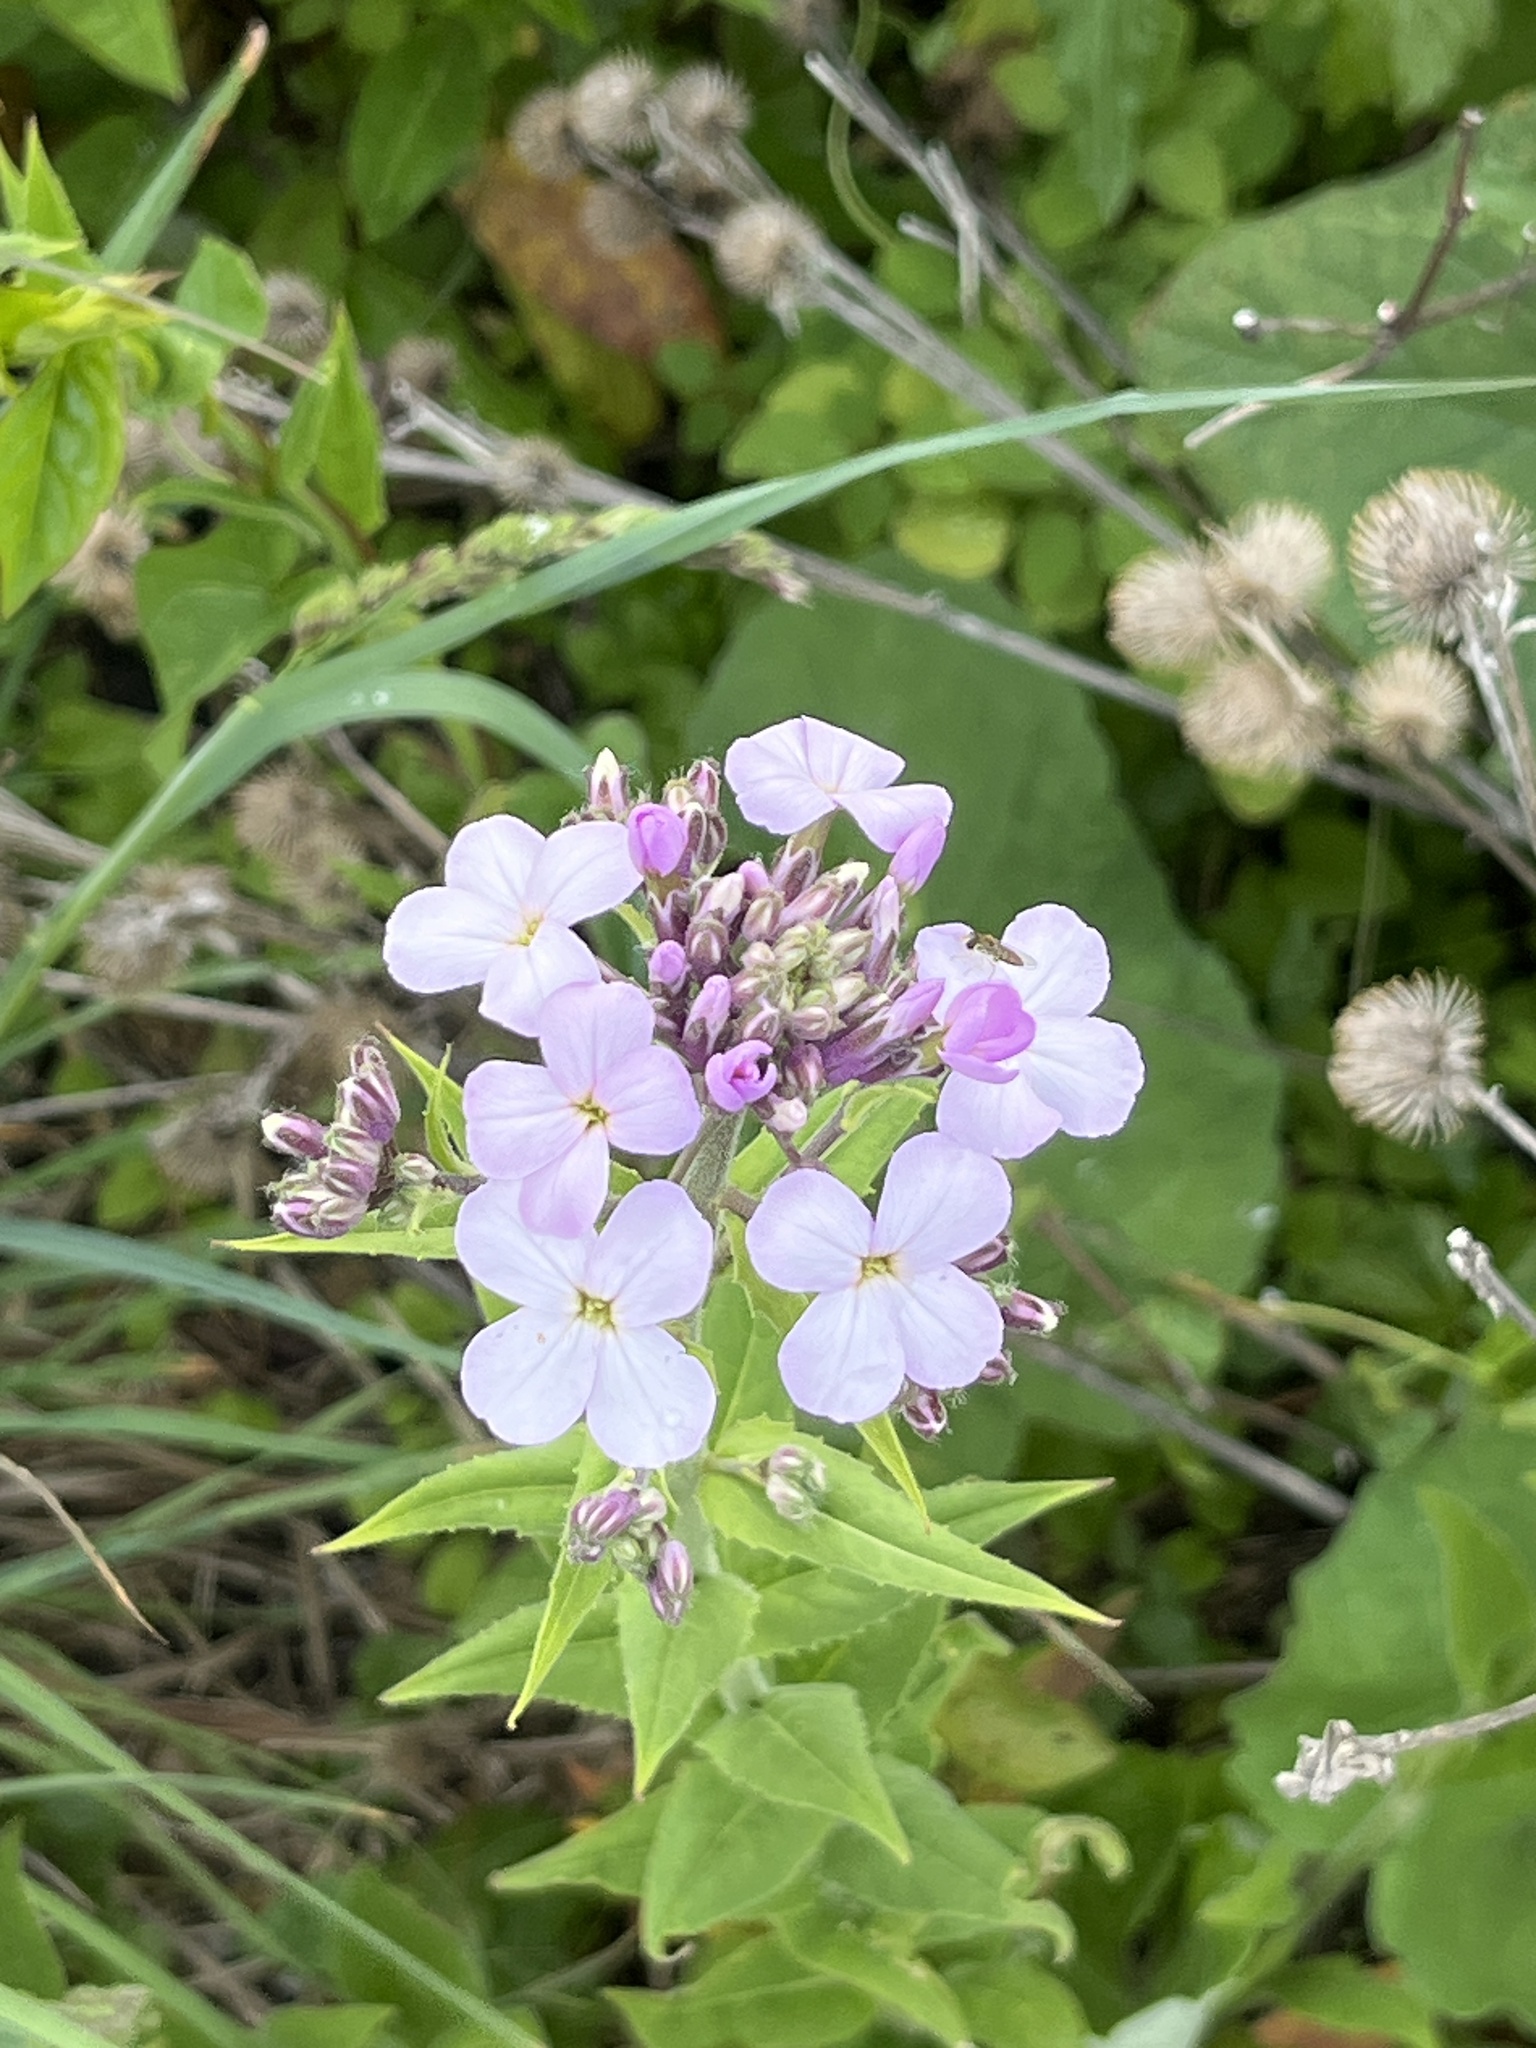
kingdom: Plantae
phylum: Tracheophyta
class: Magnoliopsida
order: Brassicales
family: Brassicaceae
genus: Hesperis
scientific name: Hesperis matronalis
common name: Dame's-violet
